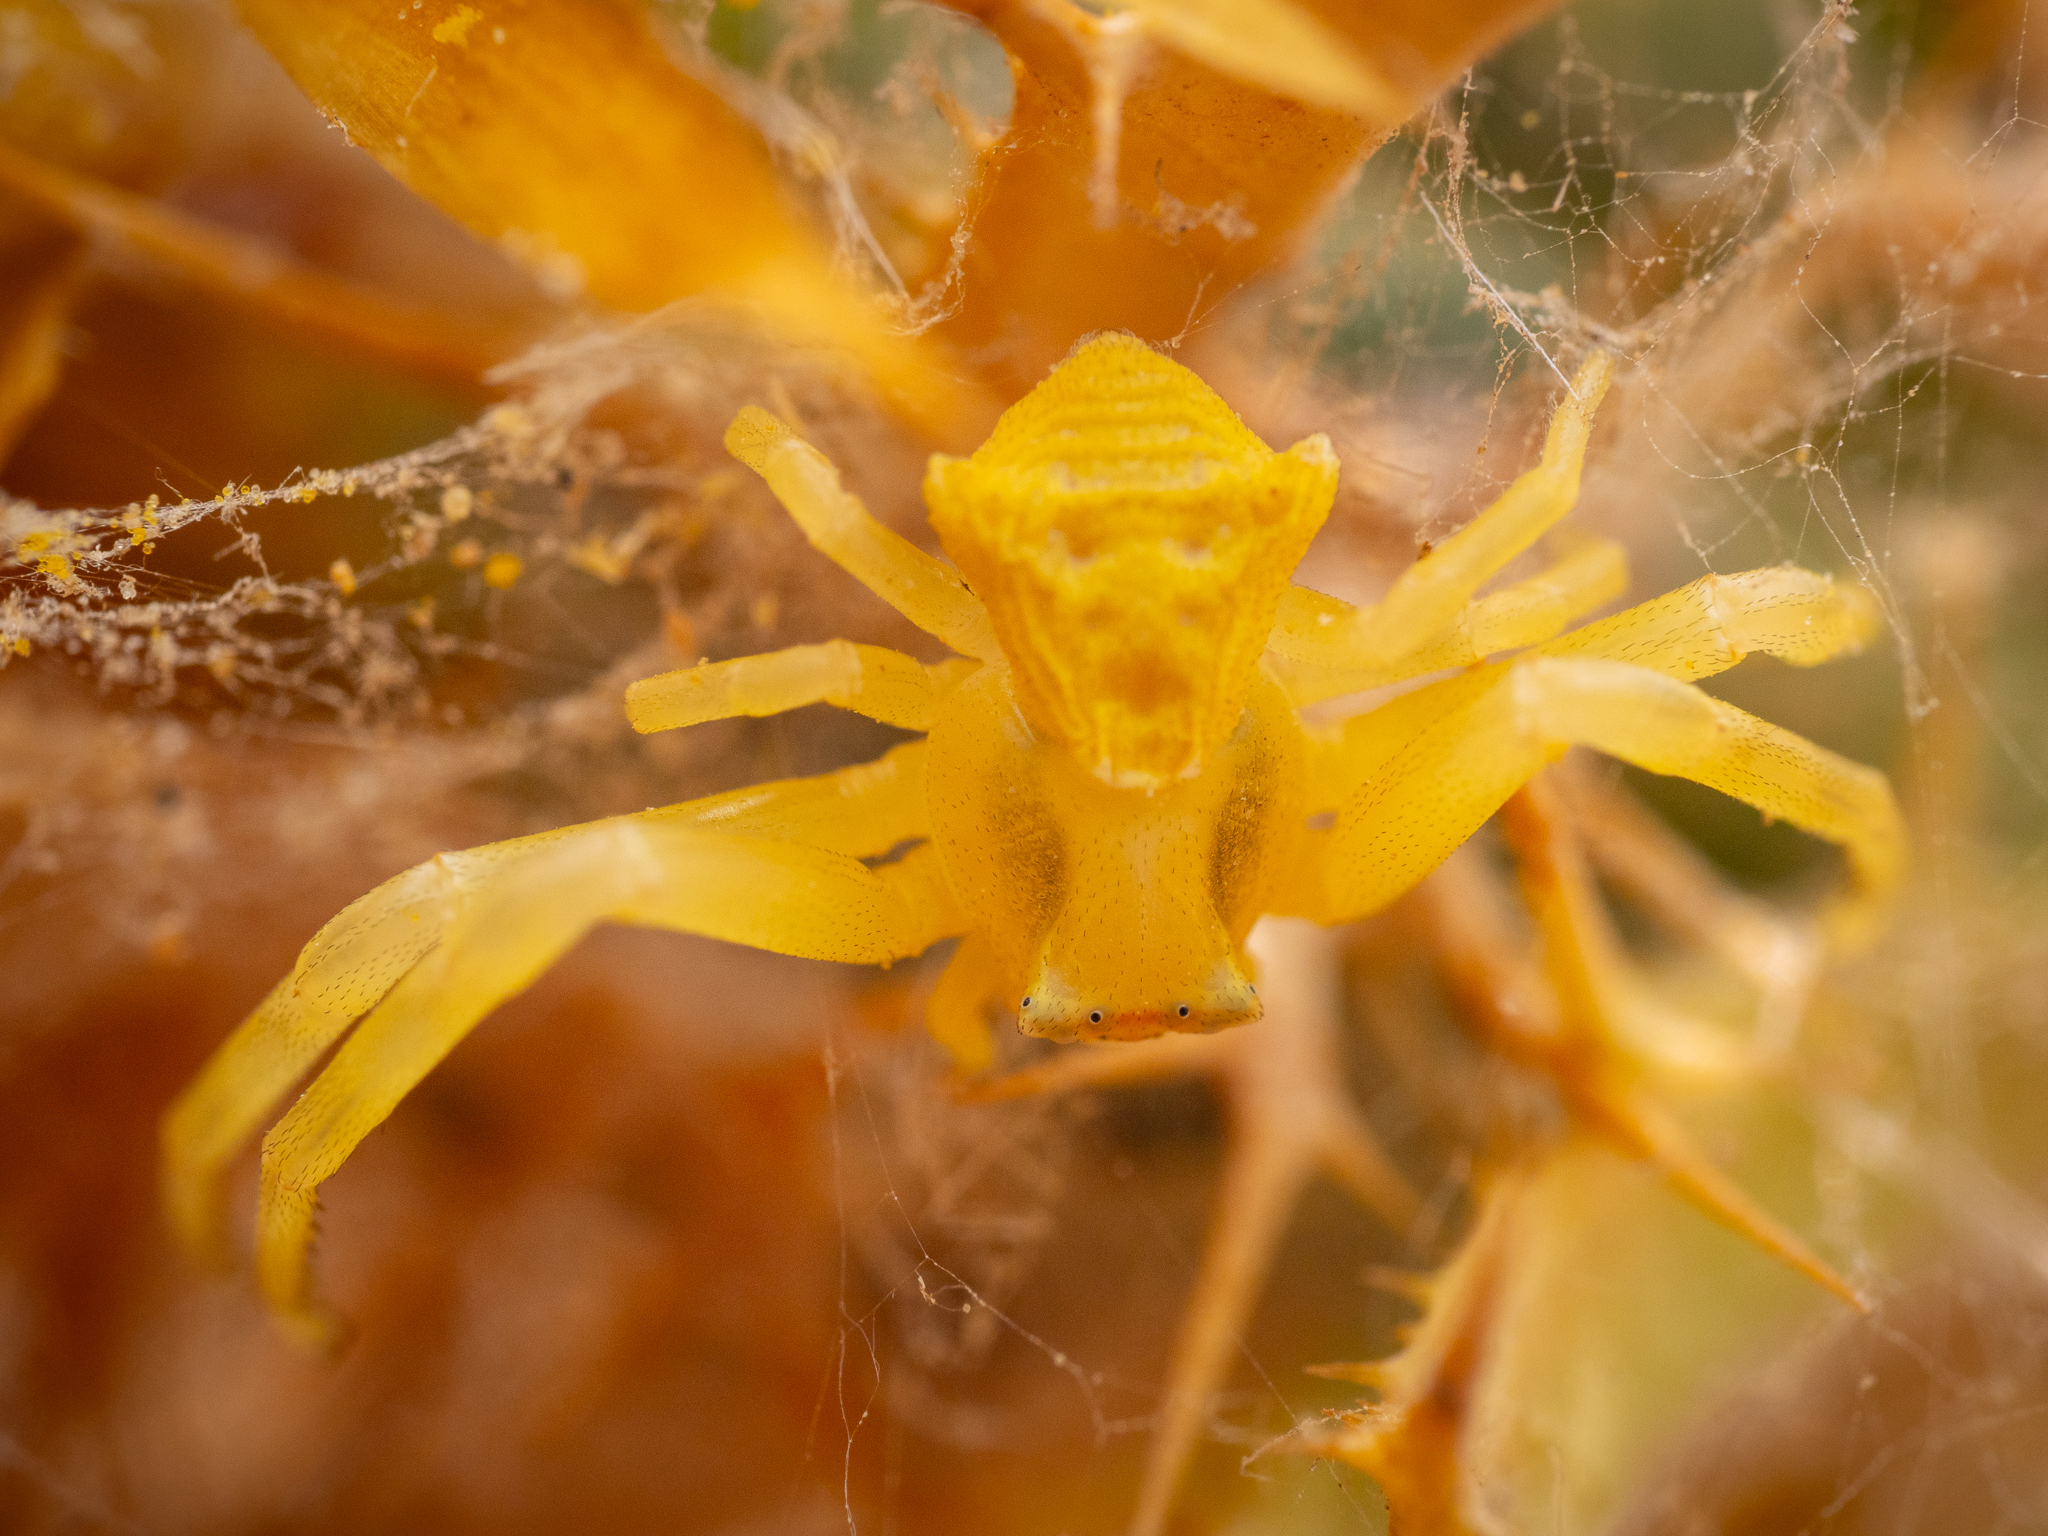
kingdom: Animalia
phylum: Arthropoda
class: Arachnida
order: Araneae
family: Thomisidae
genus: Thomisus
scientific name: Thomisus onustus
